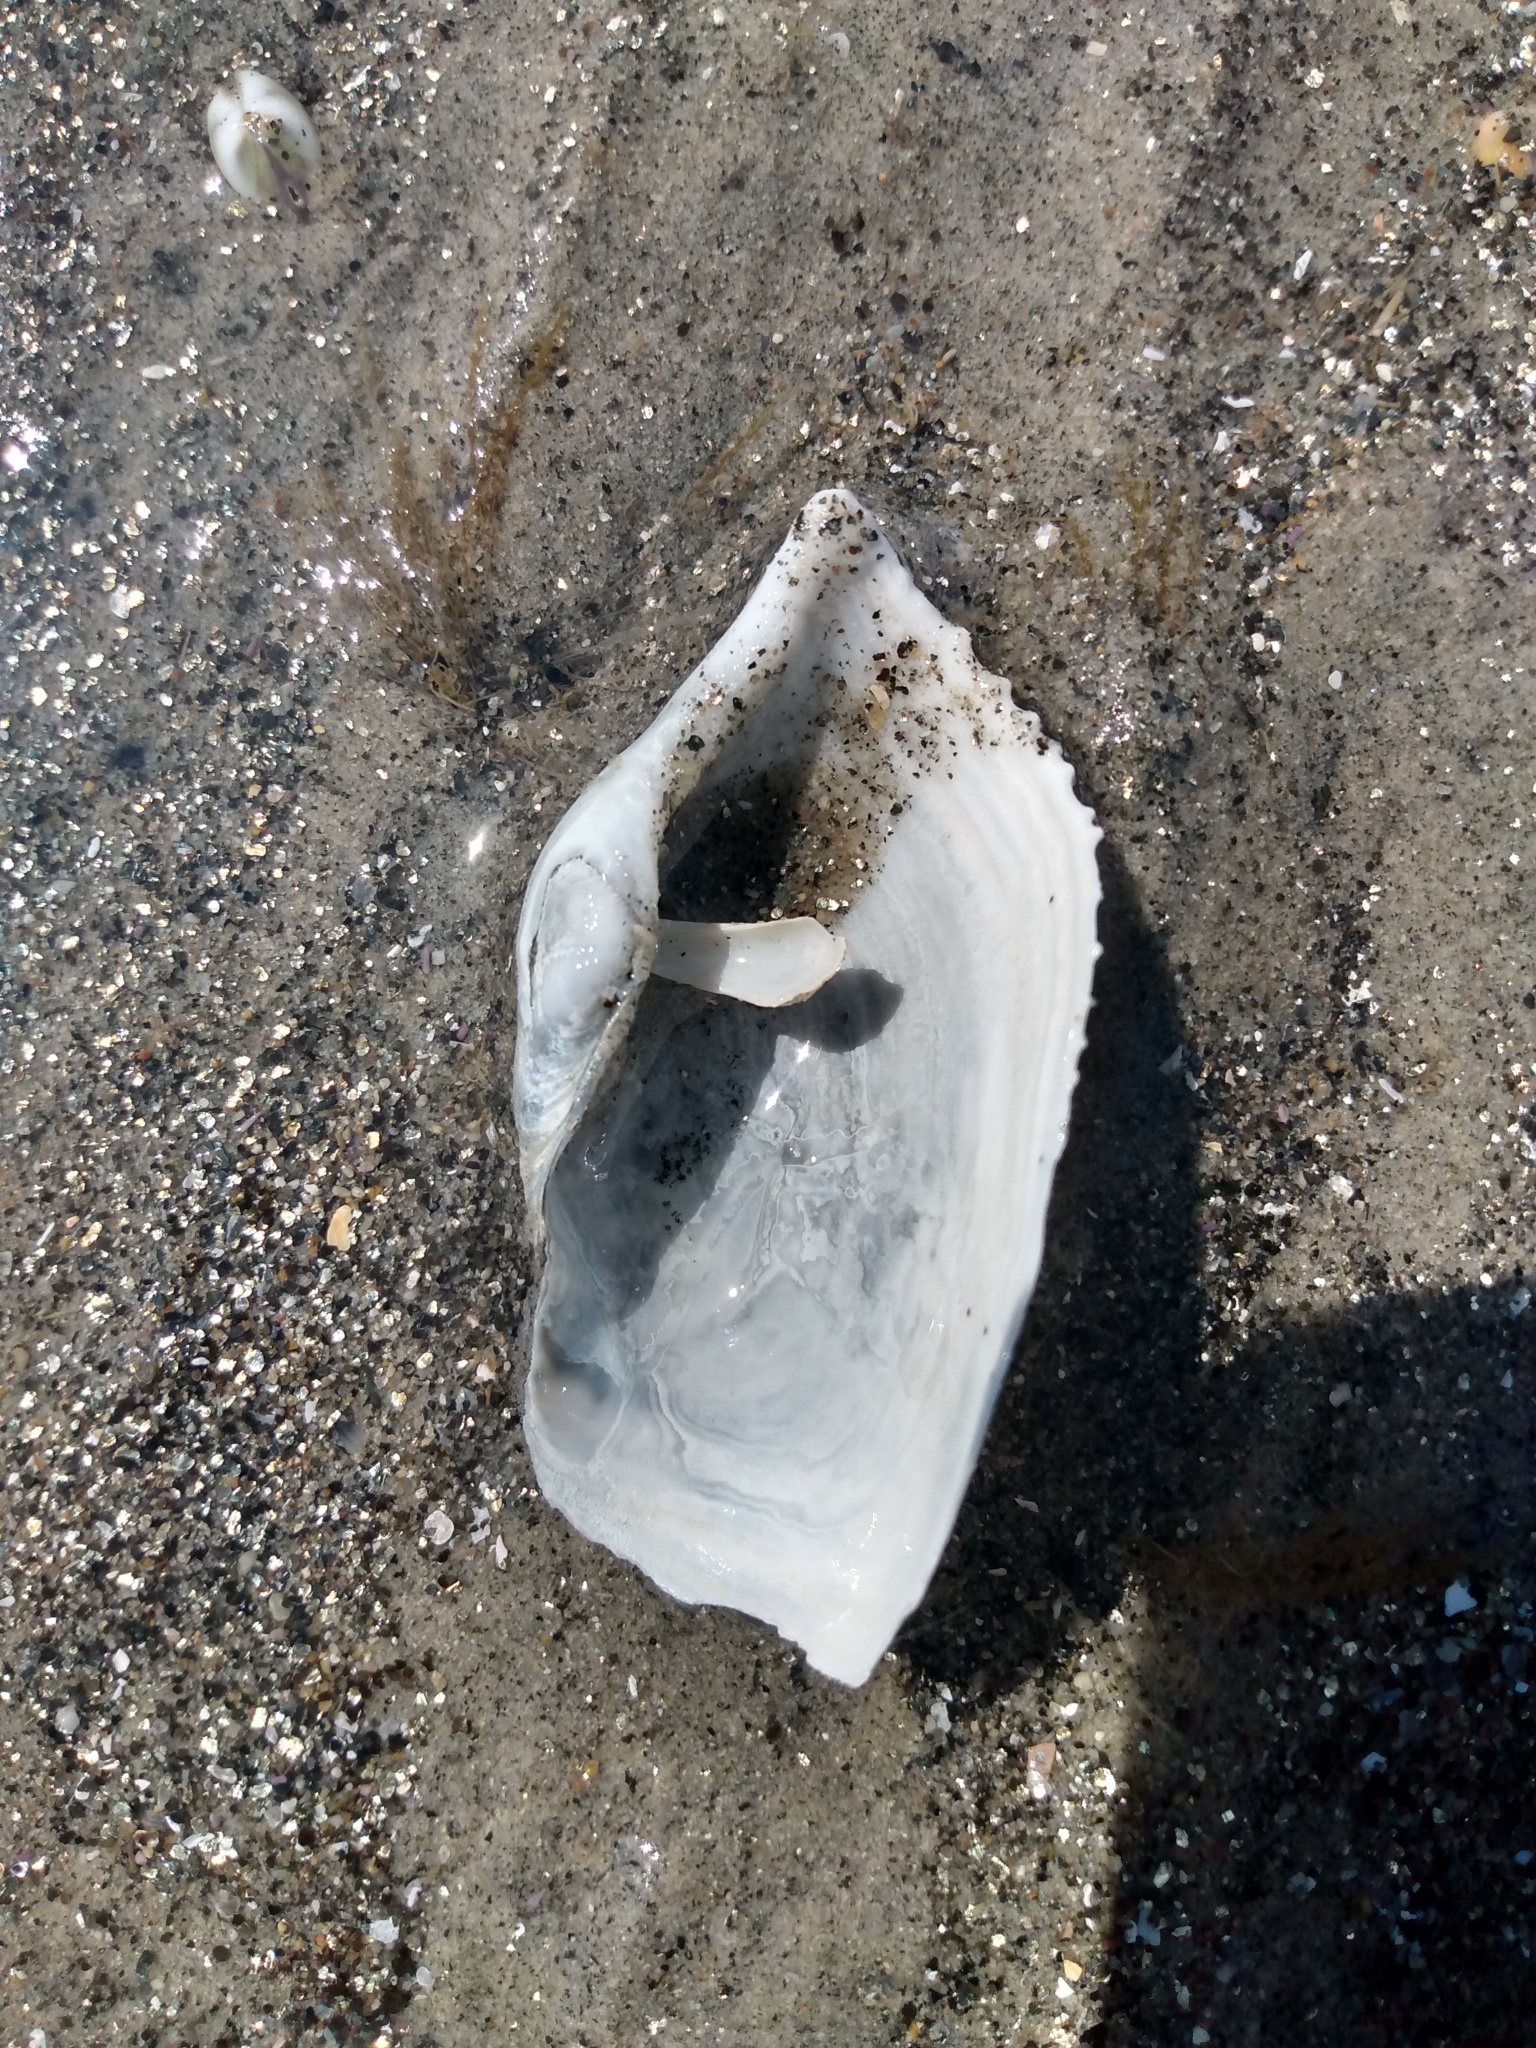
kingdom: Animalia
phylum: Mollusca
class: Bivalvia
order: Myida
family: Pholadidae
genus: Zirfaea
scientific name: Zirfaea pilsbryi
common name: Rough piddock
